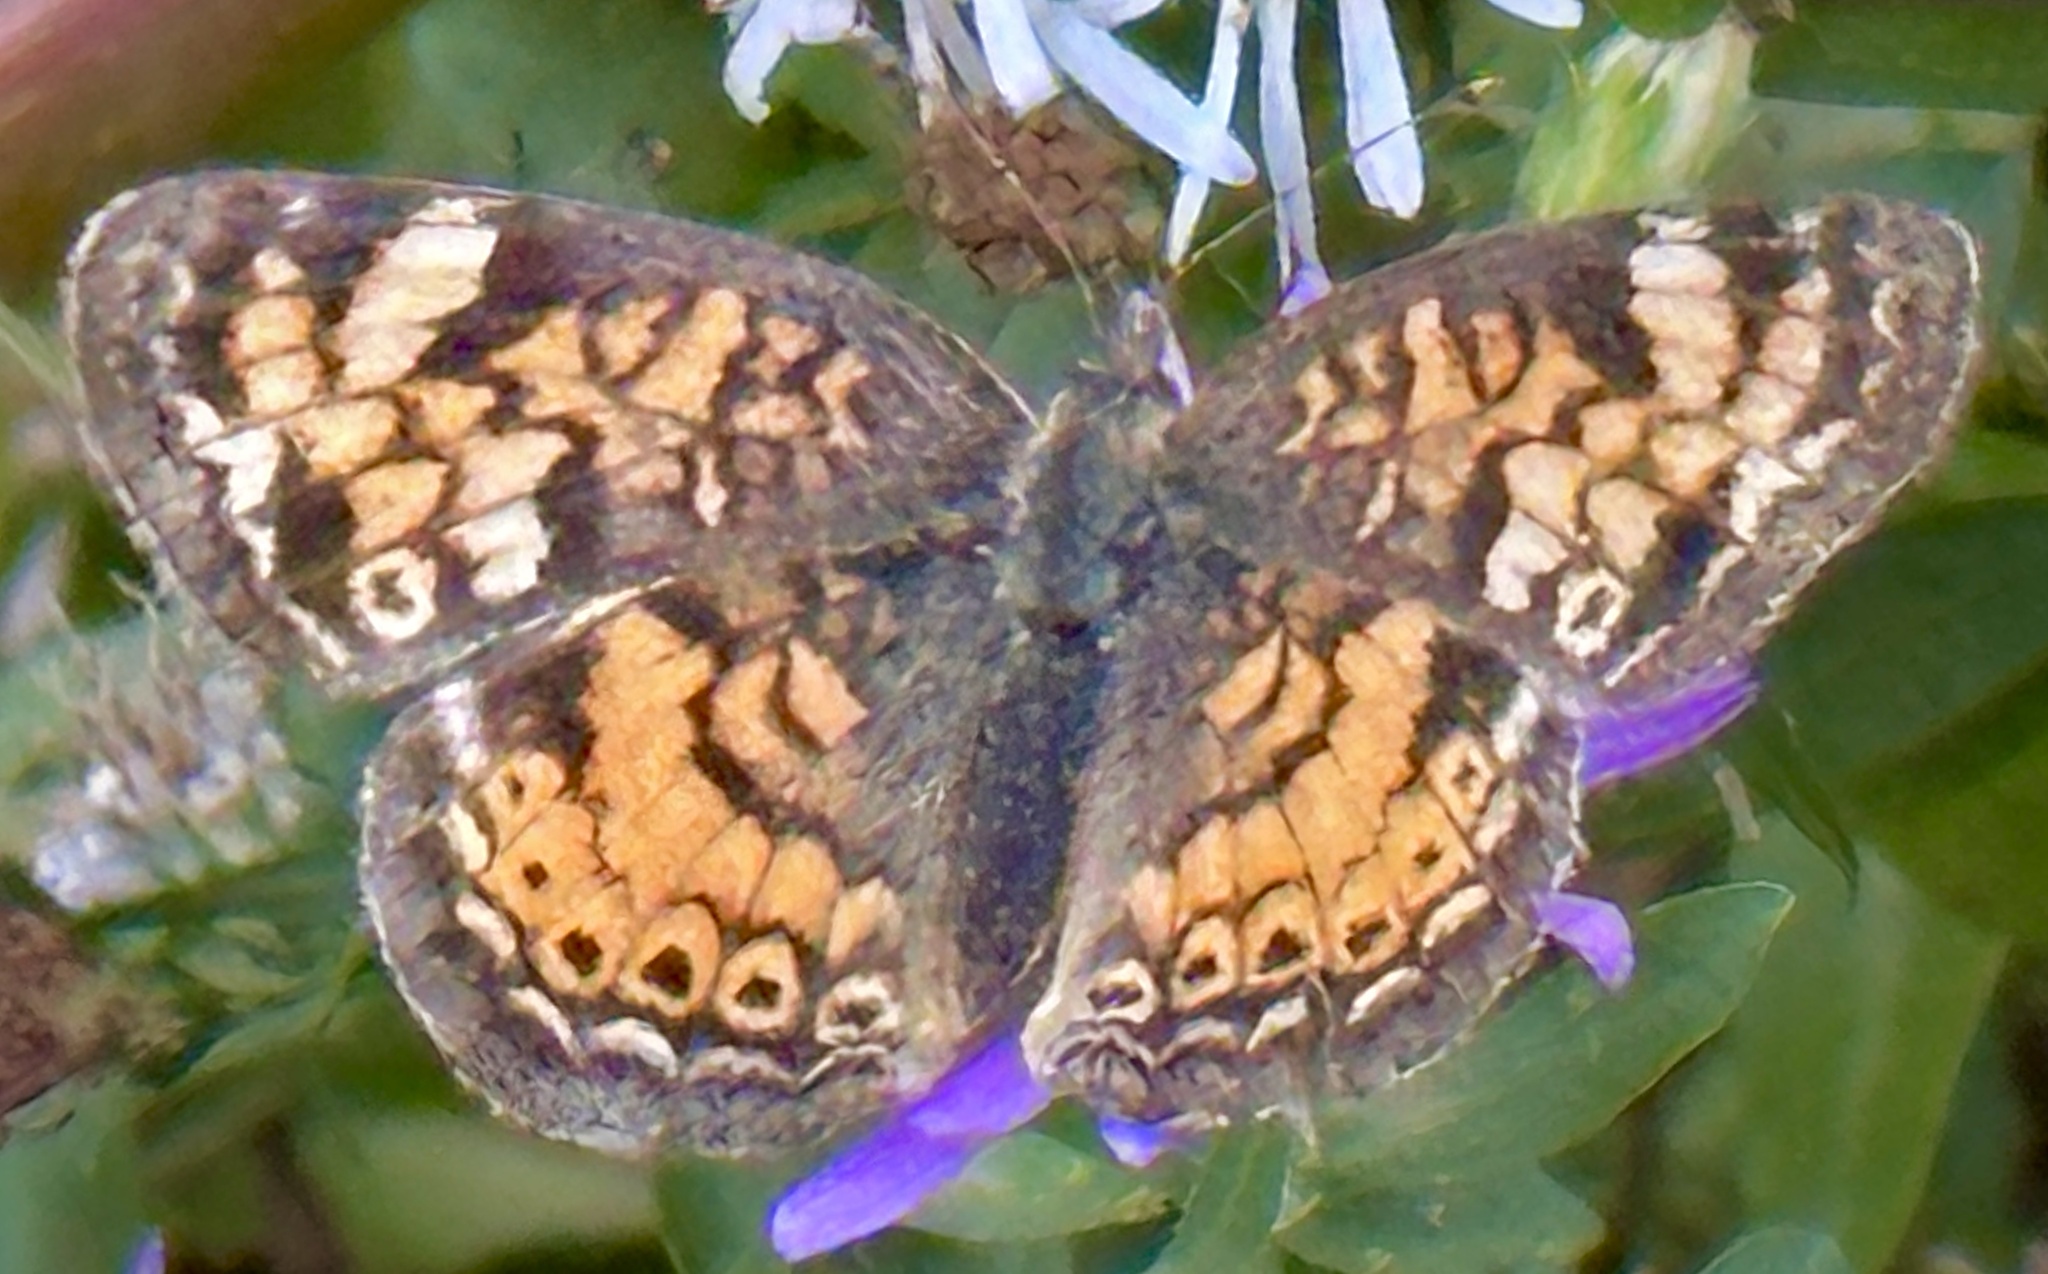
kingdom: Animalia
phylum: Arthropoda
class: Insecta
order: Lepidoptera
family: Nymphalidae
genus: Phyciodes
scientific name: Phyciodes tharos
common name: Pearl crescent
